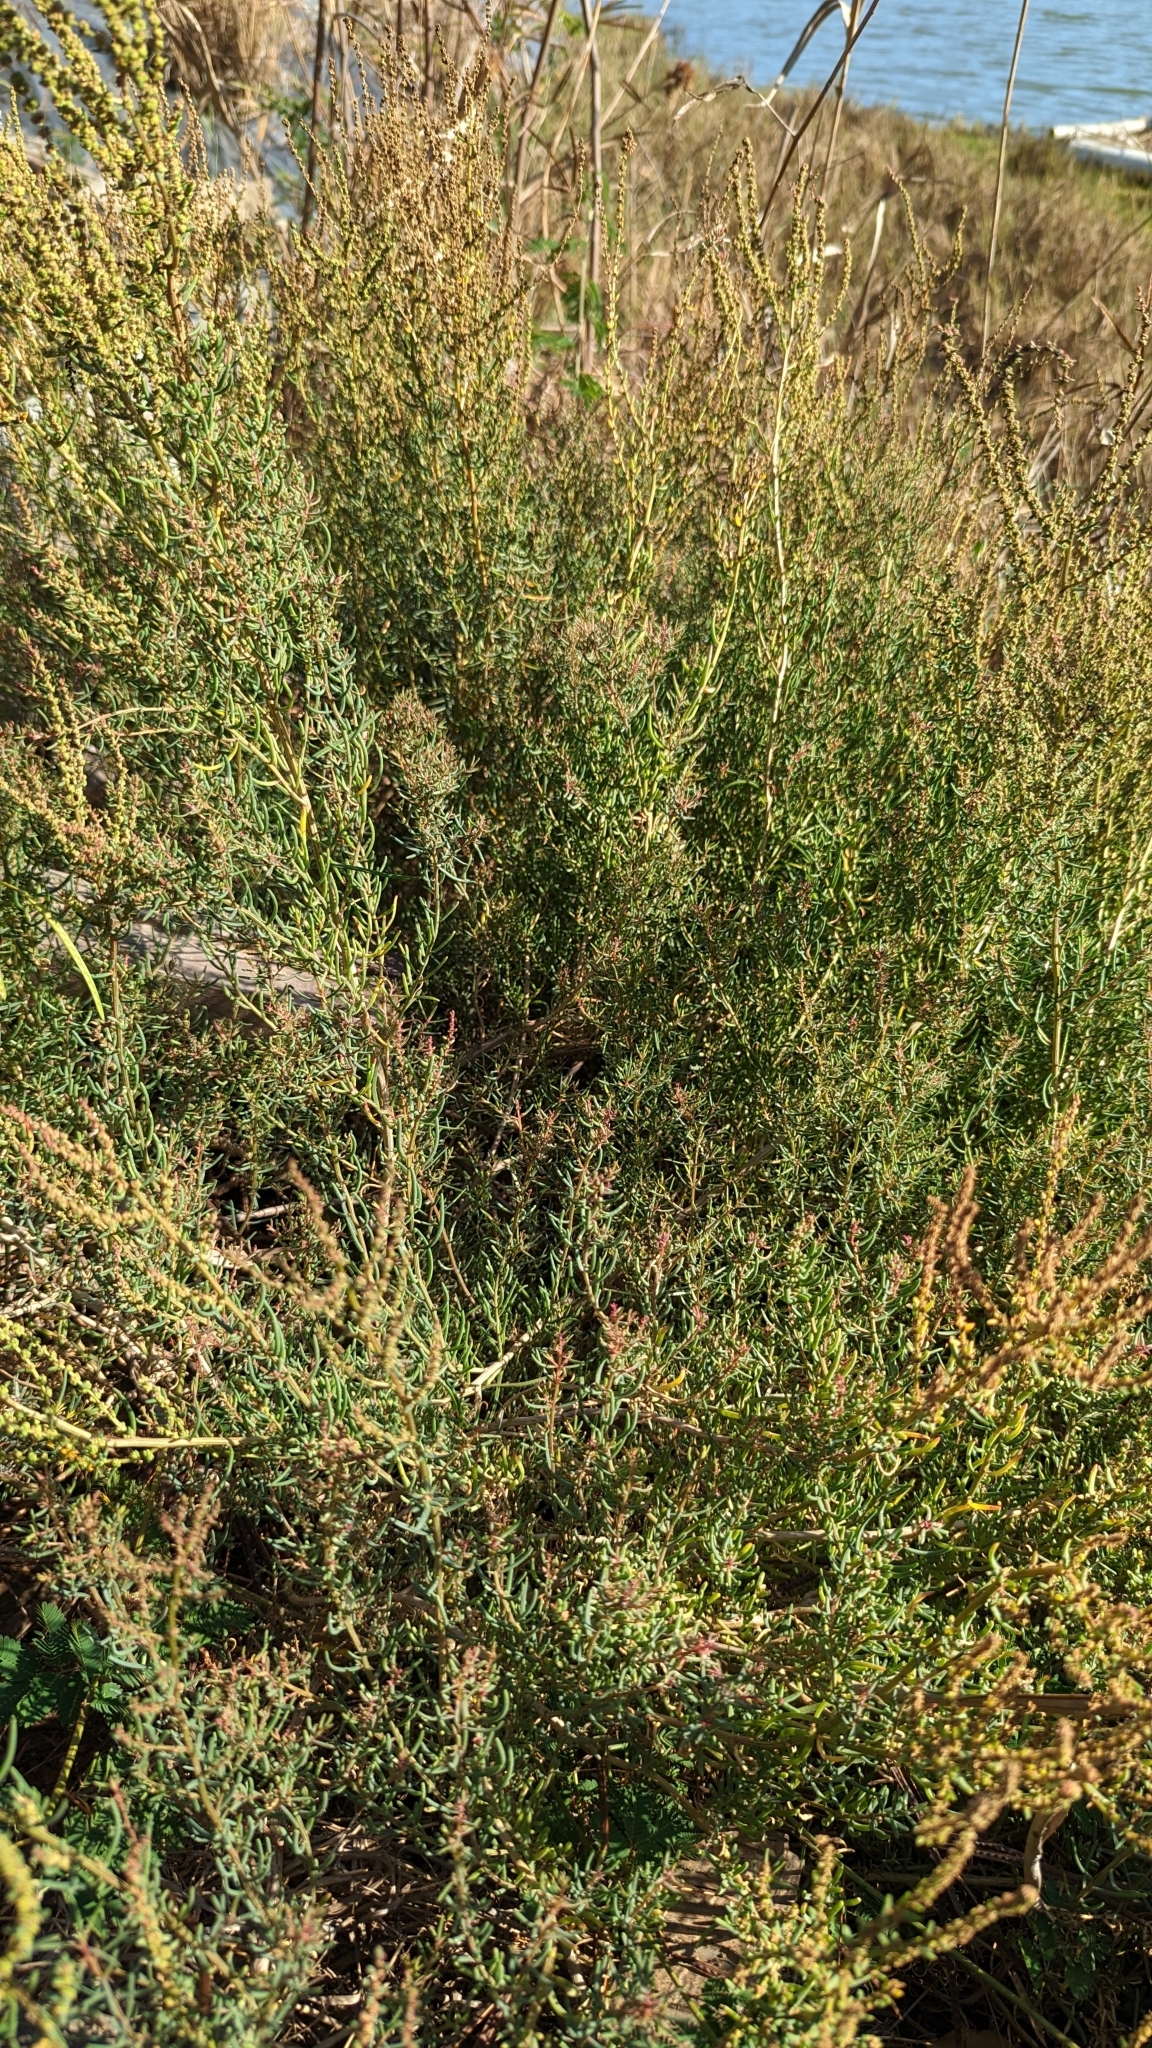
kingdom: Plantae
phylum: Tracheophyta
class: Magnoliopsida
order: Caryophyllales
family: Amaranthaceae
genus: Suaeda
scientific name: Suaeda maritima
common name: Annual sea-blite
